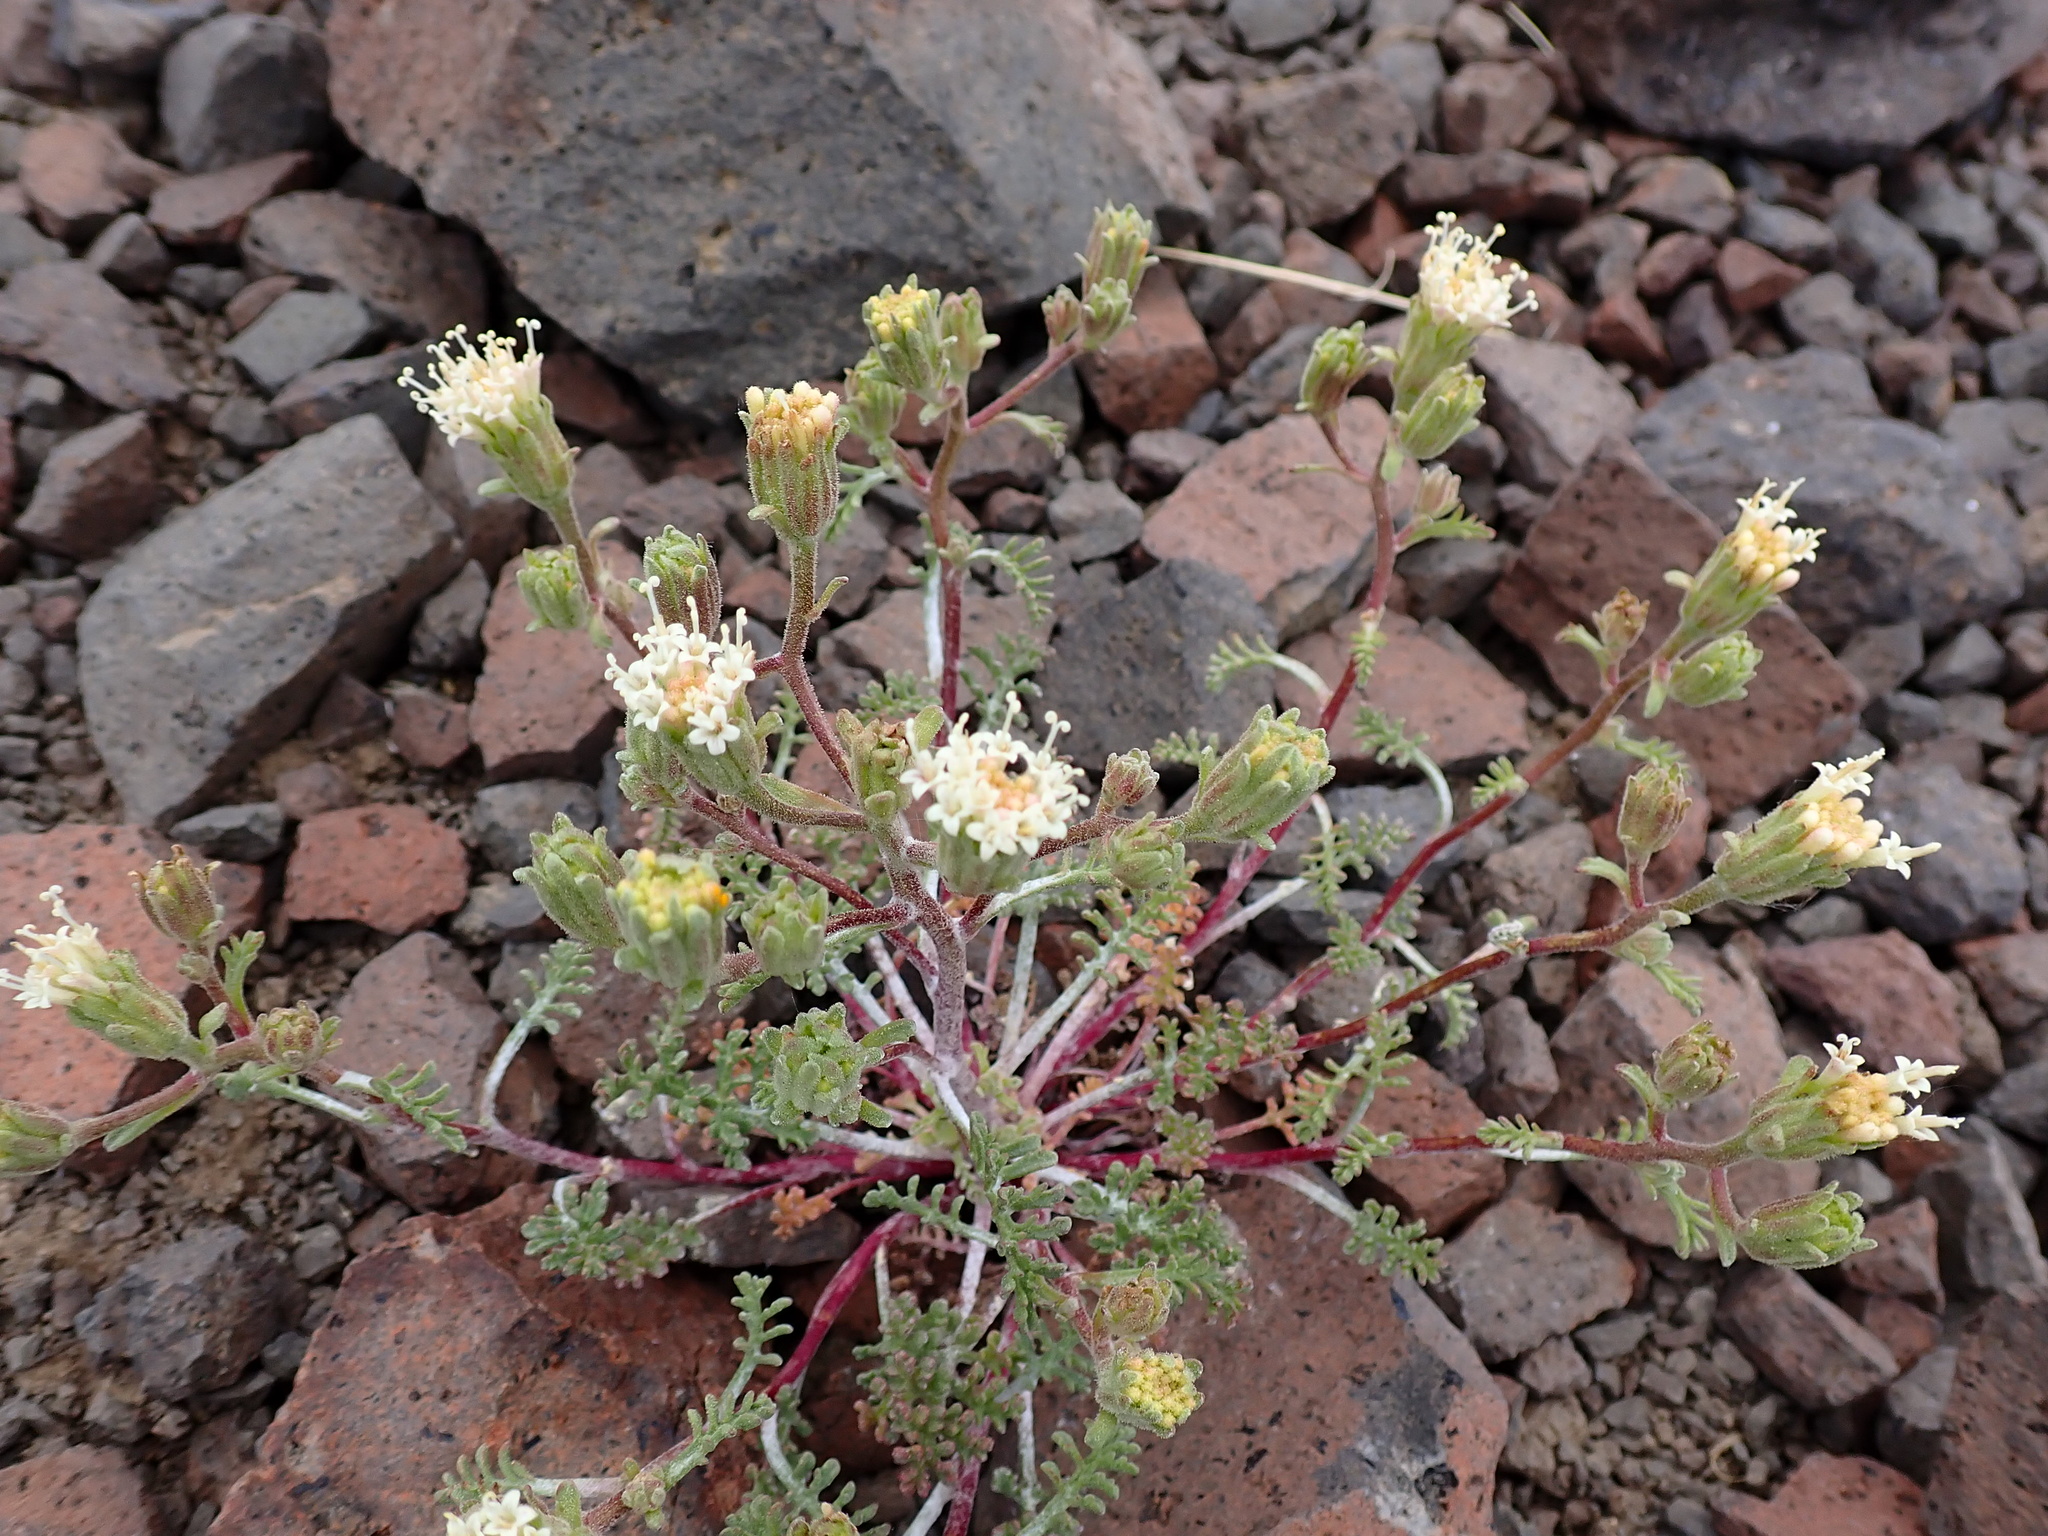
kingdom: Plantae
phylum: Tracheophyta
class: Magnoliopsida
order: Asterales
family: Asteraceae
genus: Chaenactis
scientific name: Chaenactis douglasii
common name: Hoary pincushion
